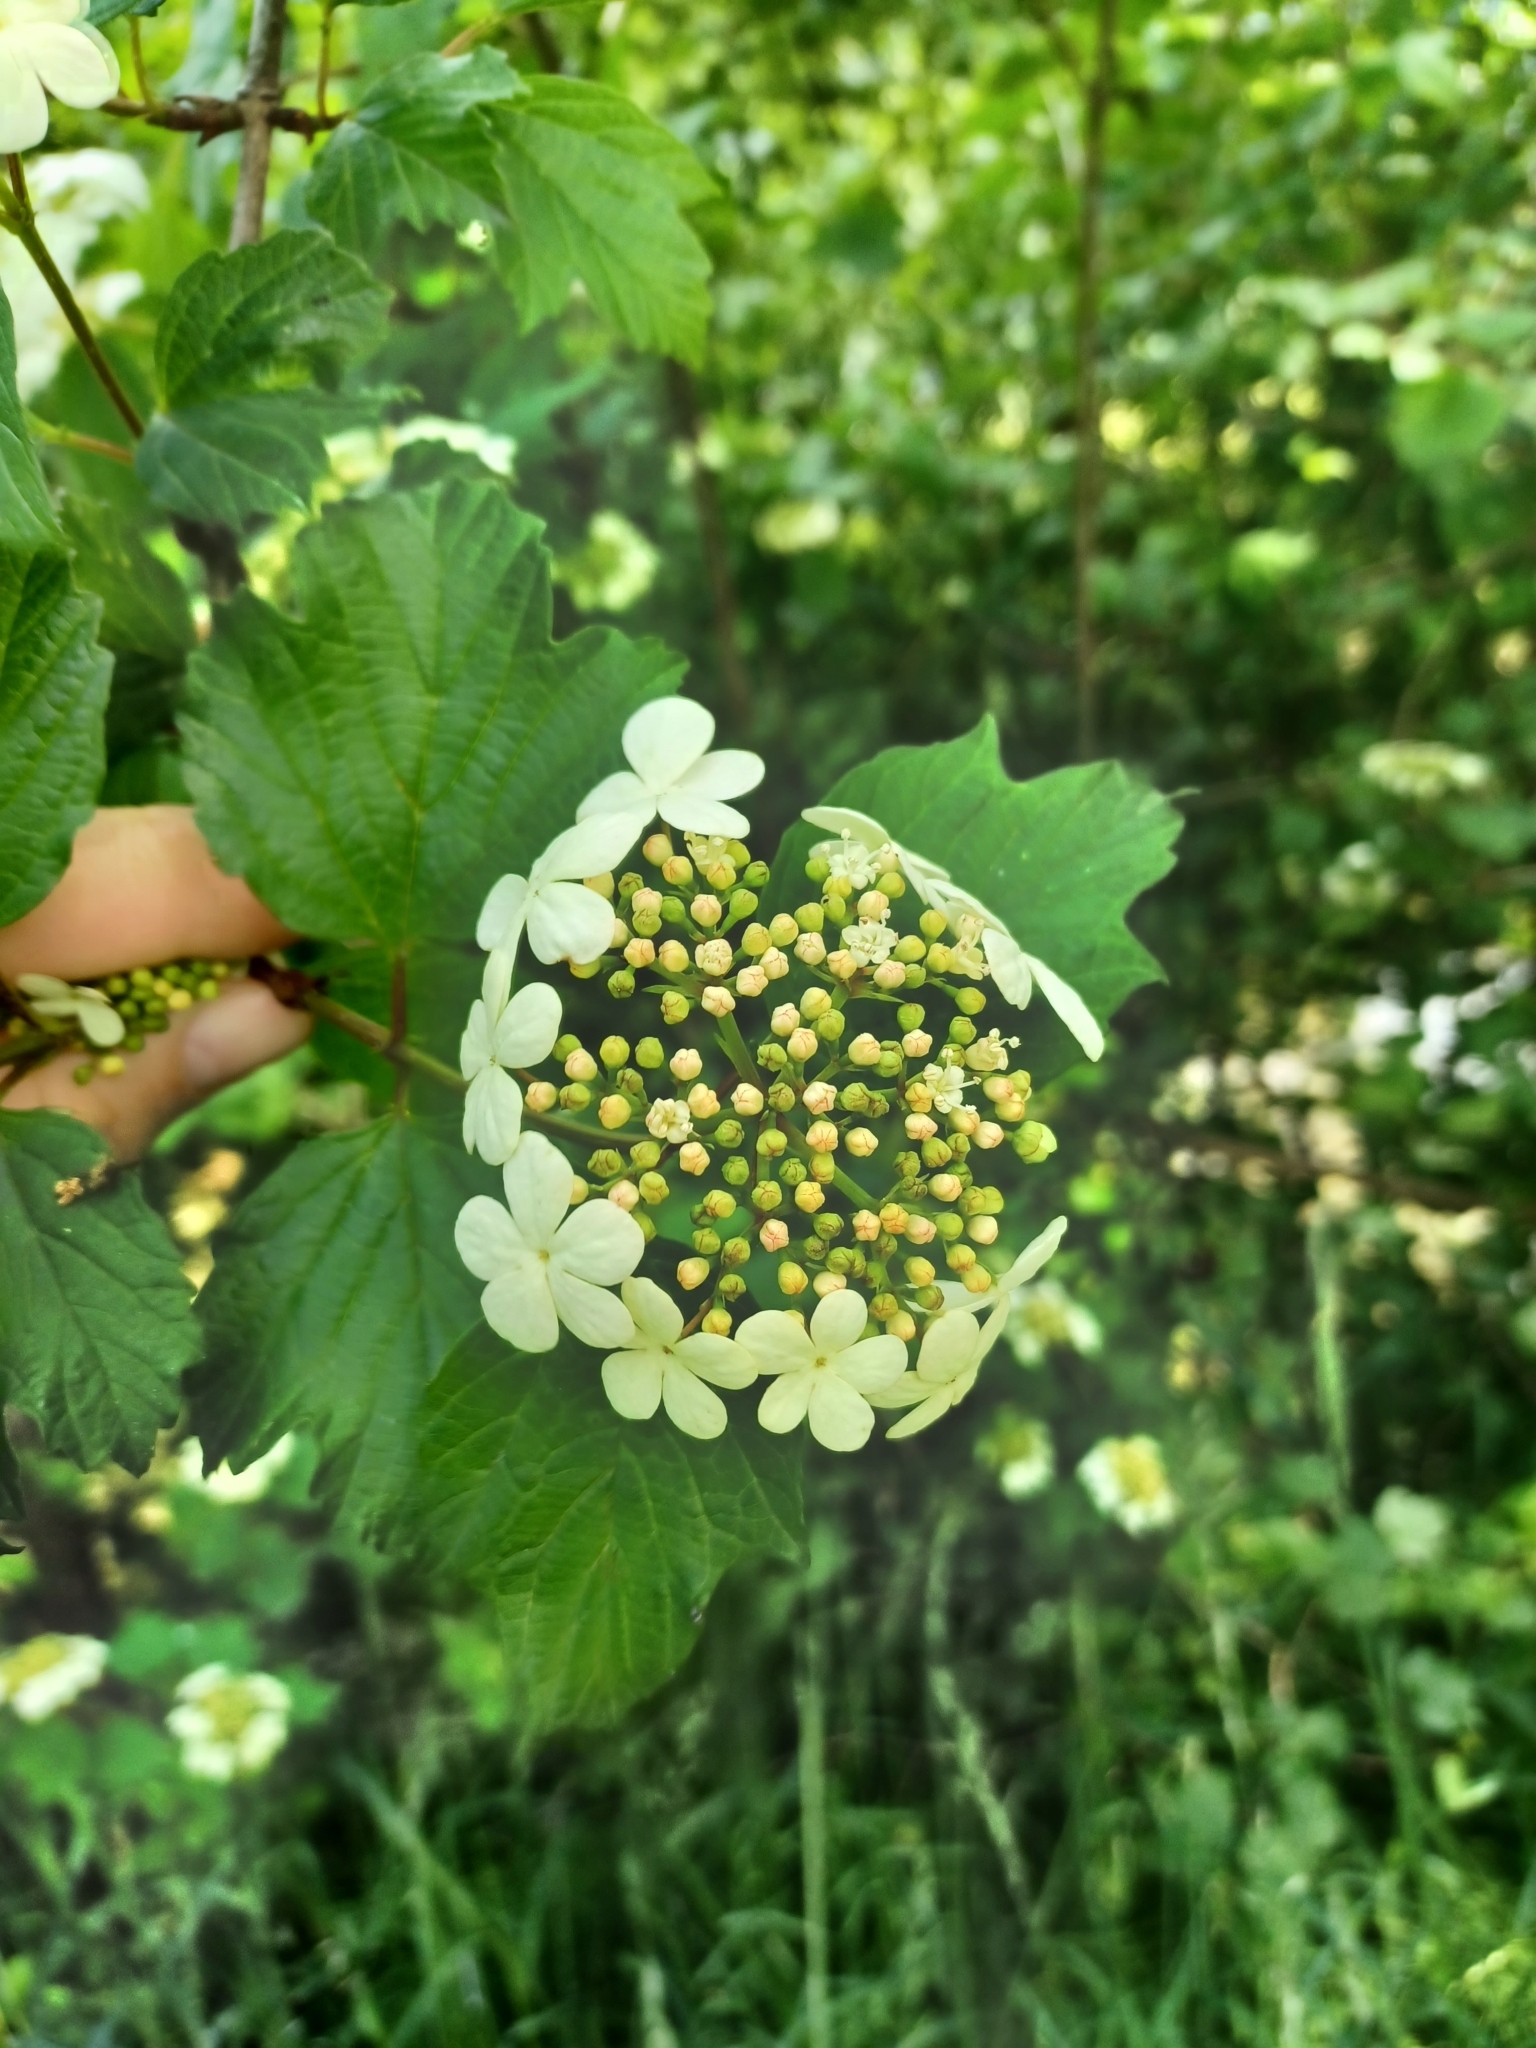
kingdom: Plantae
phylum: Tracheophyta
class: Magnoliopsida
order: Dipsacales
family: Viburnaceae
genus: Viburnum
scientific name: Viburnum opulus
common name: Guelder-rose
